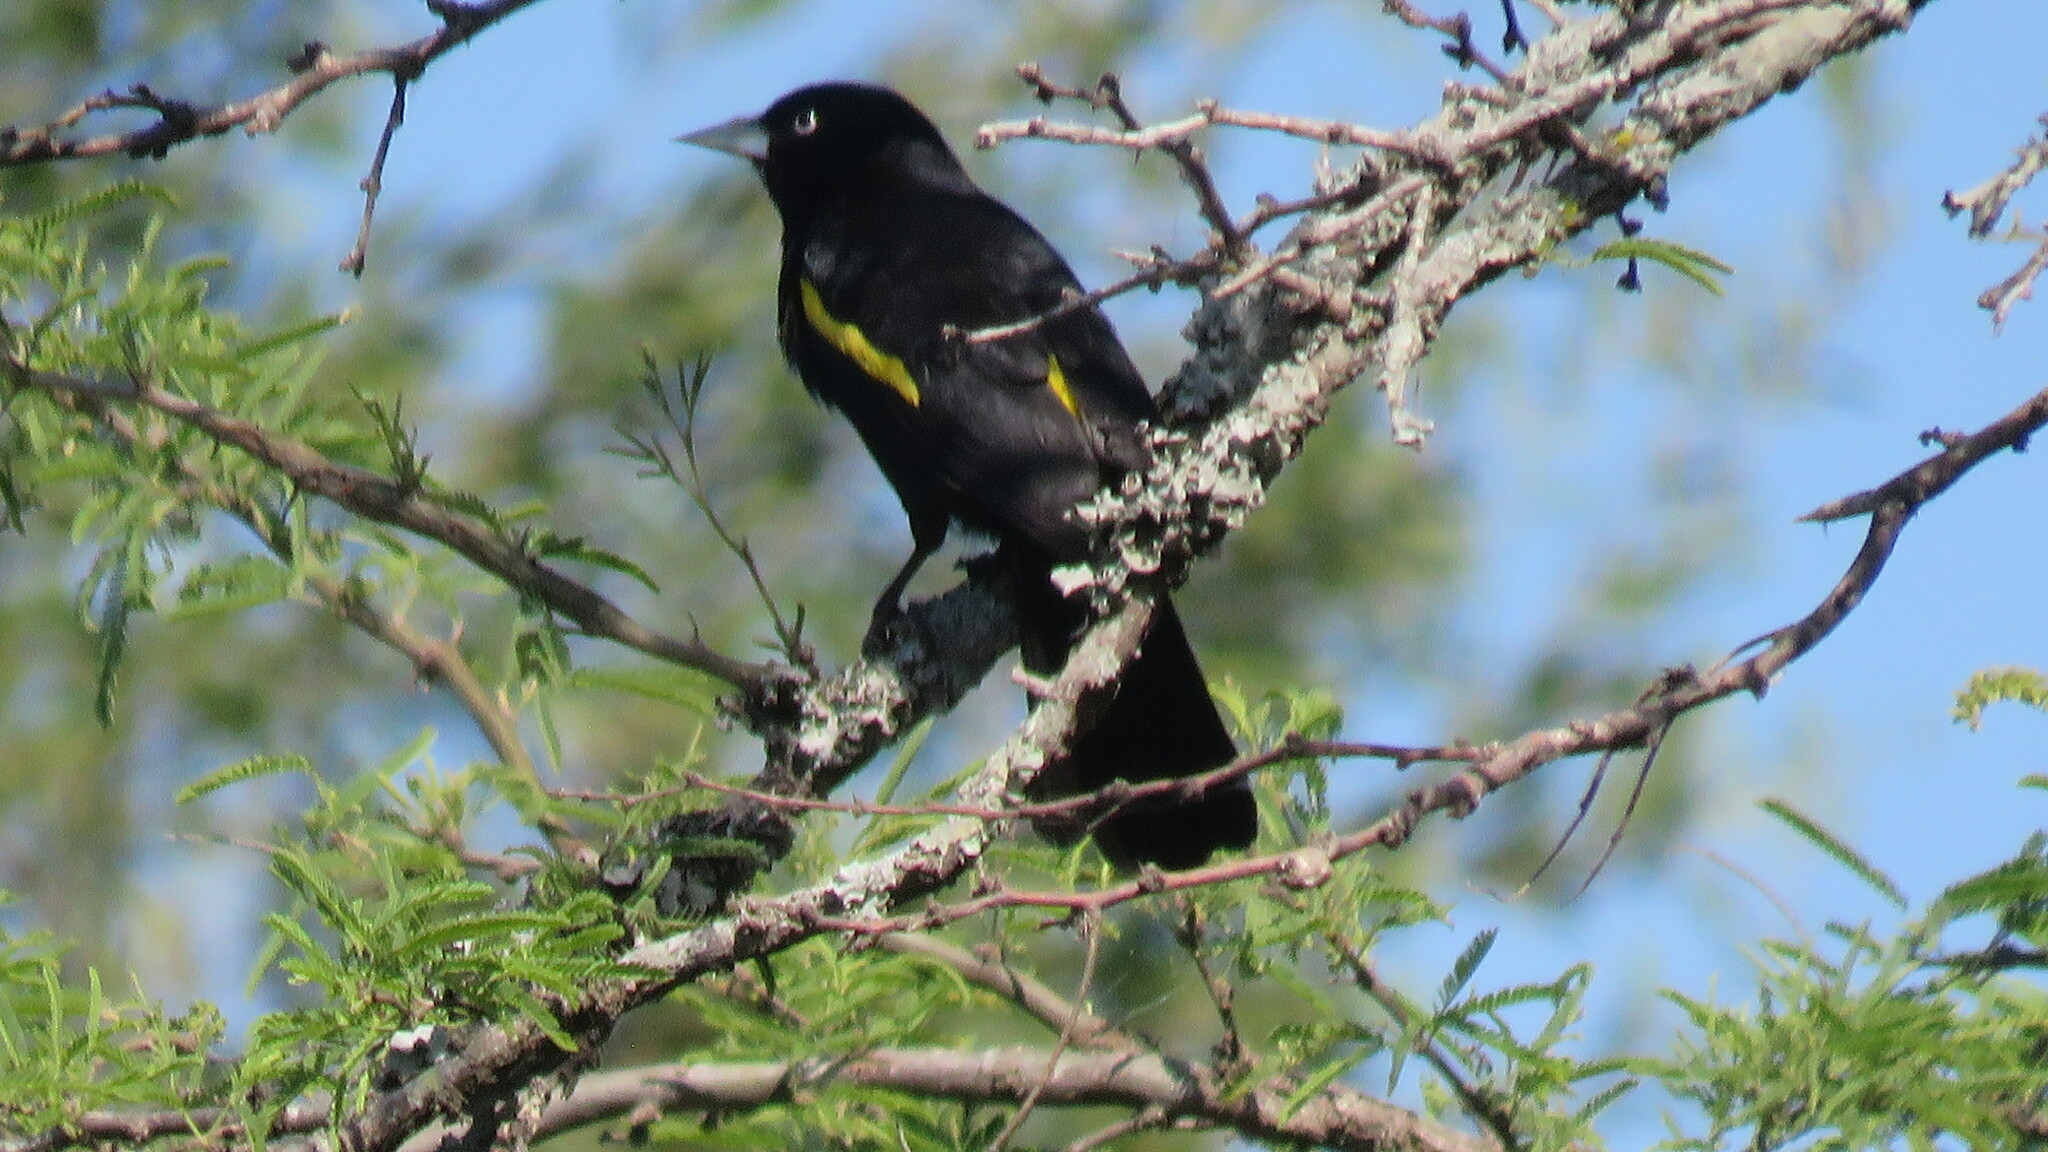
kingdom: Animalia
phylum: Chordata
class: Aves
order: Passeriformes
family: Icteridae
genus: Cacicus
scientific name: Cacicus chrysopterus
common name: Golden-winged cacique
